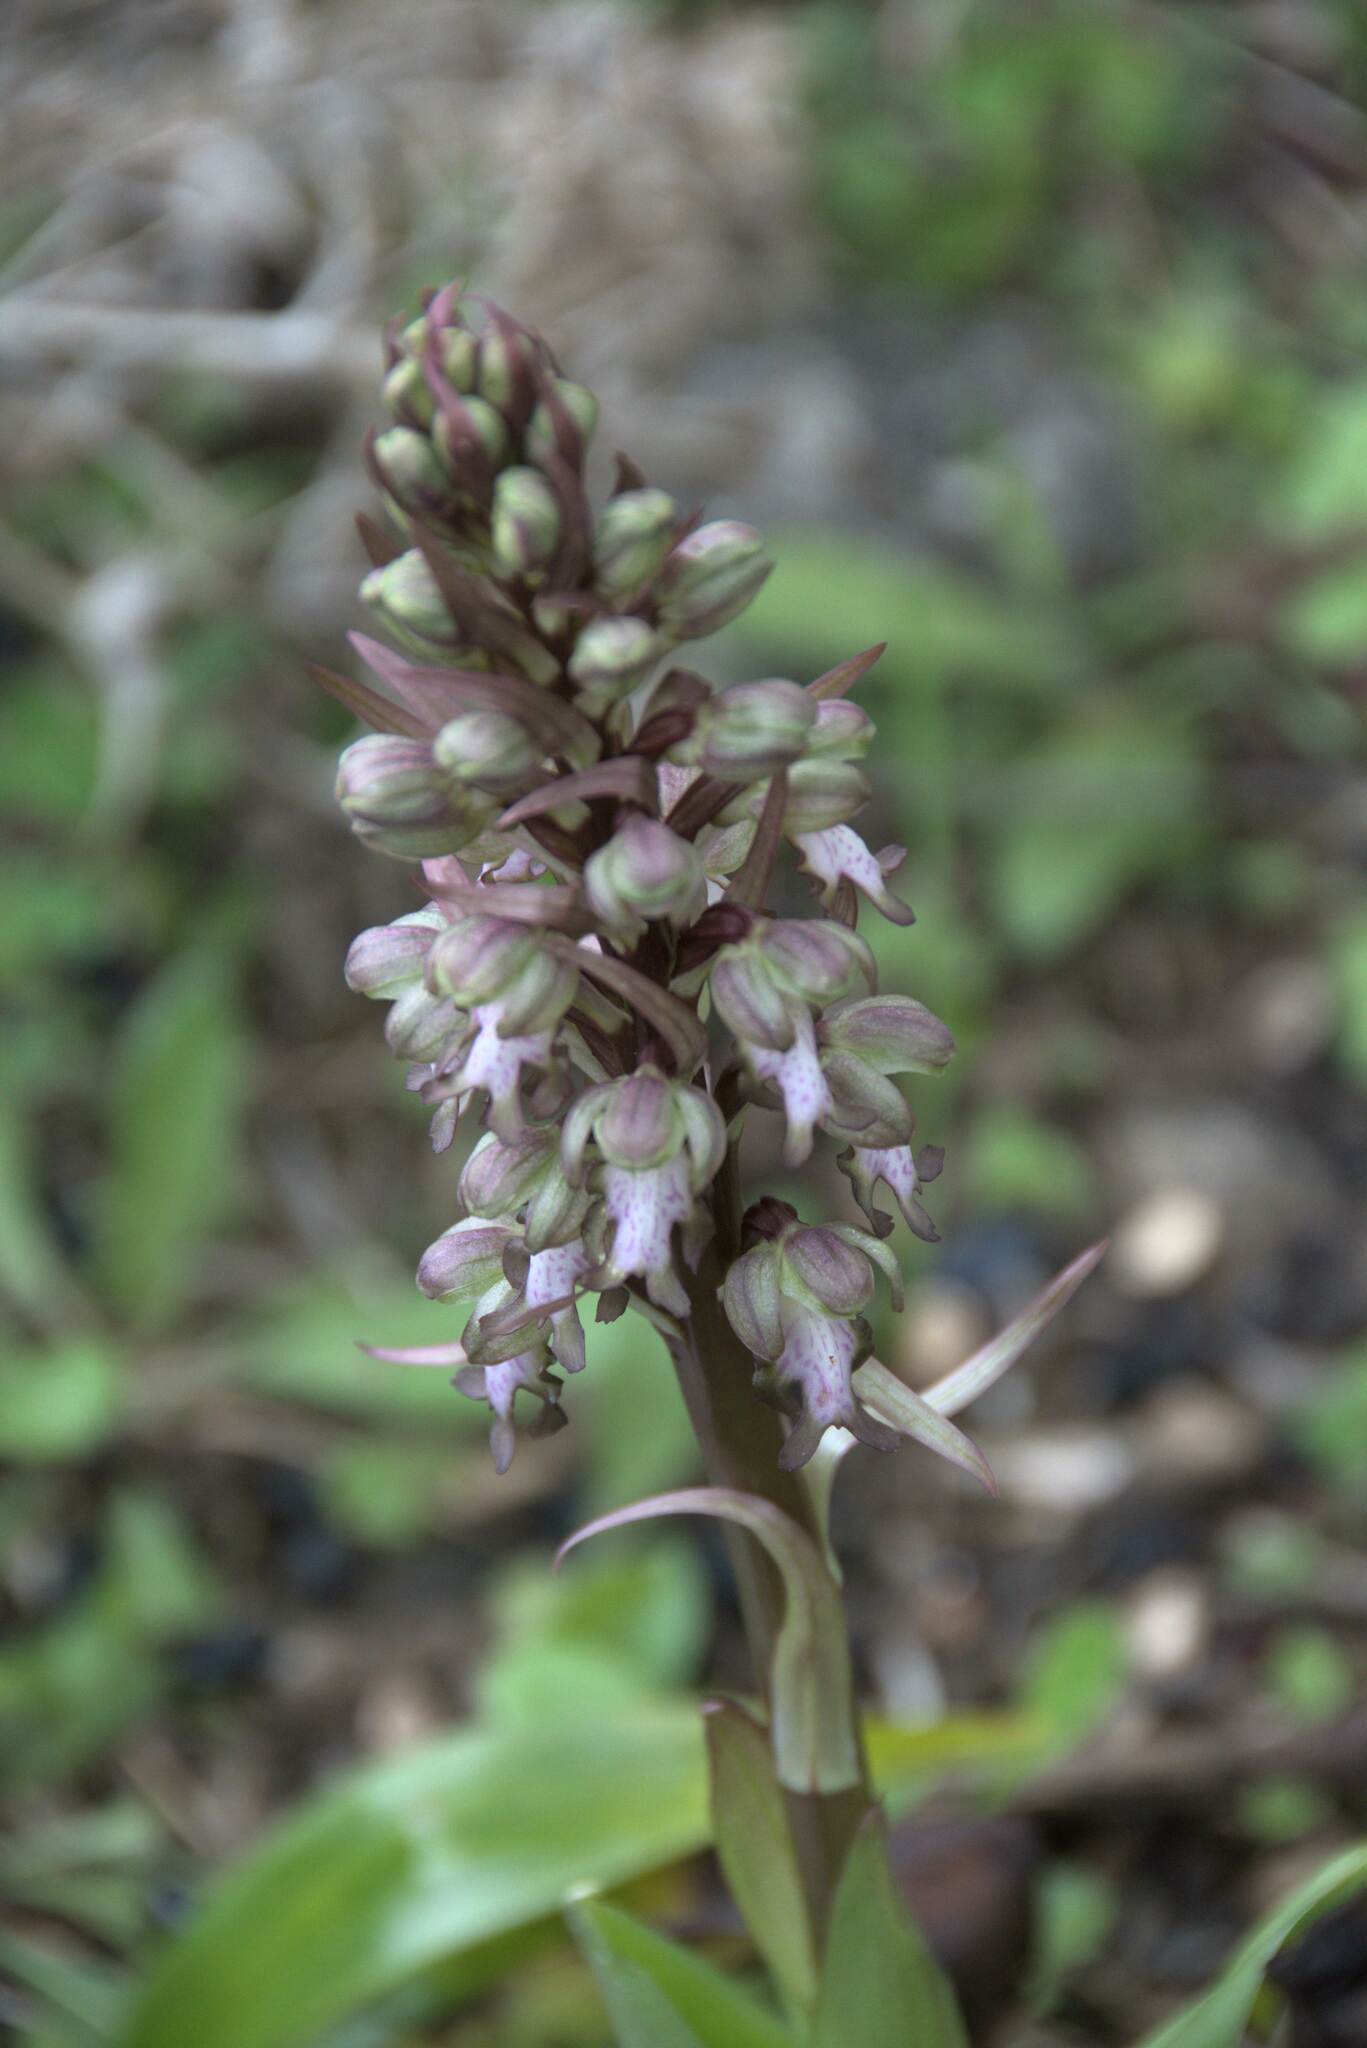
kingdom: Plantae
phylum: Tracheophyta
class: Liliopsida
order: Asparagales
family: Orchidaceae
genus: Himantoglossum
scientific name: Himantoglossum robertianum
